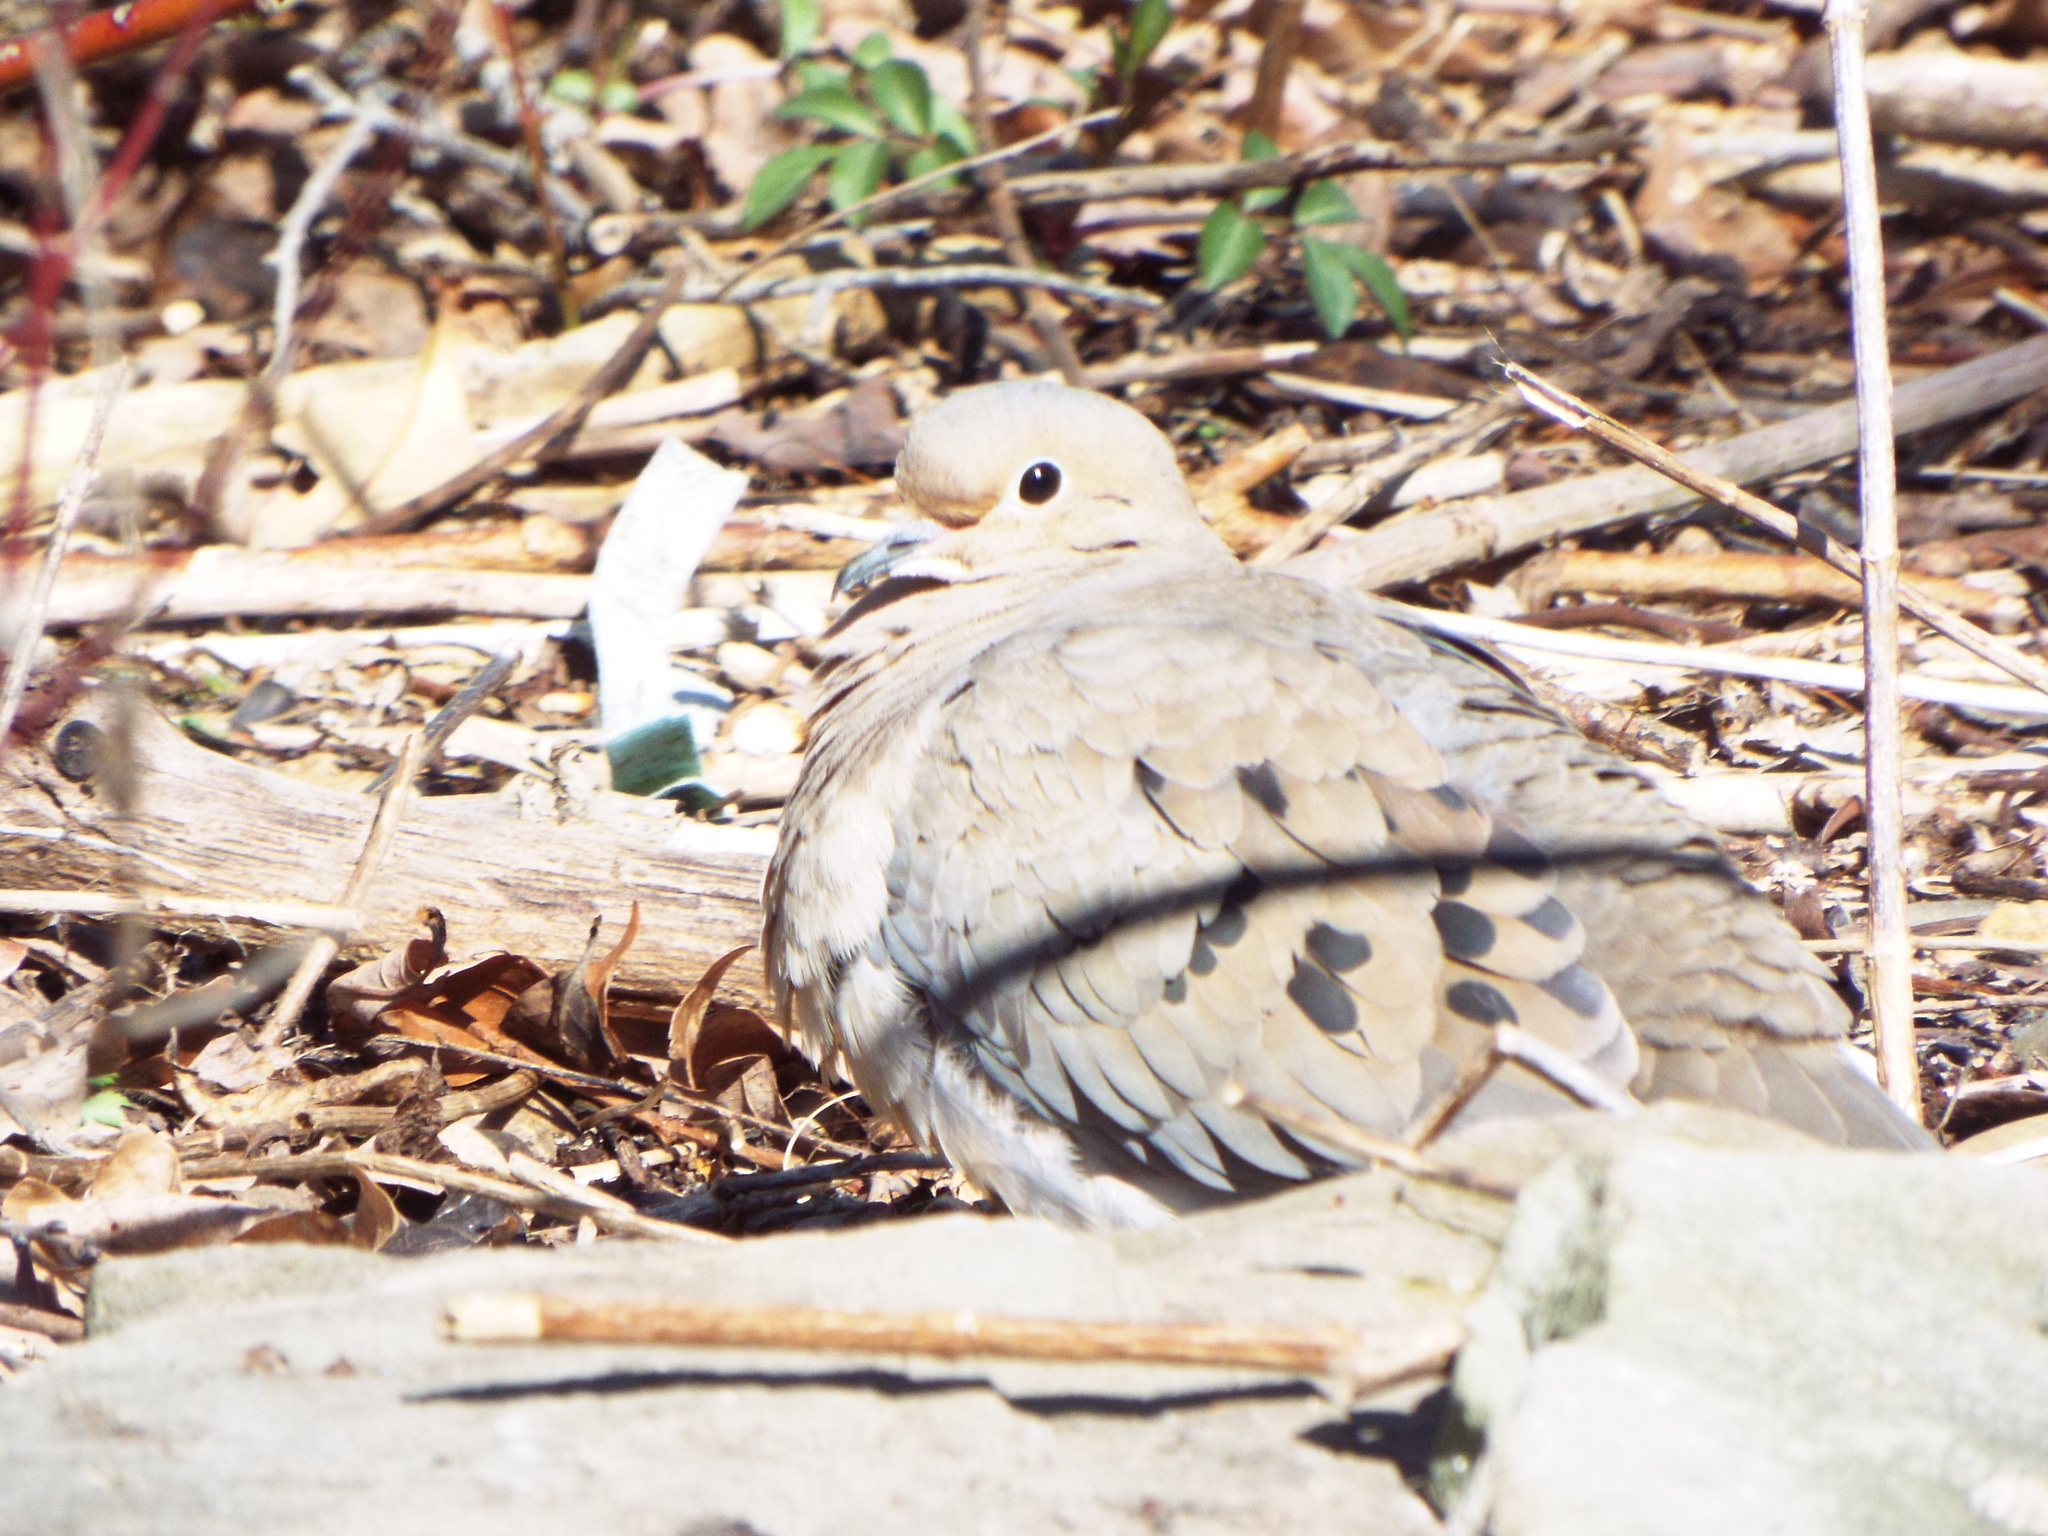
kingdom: Animalia
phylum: Chordata
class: Aves
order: Columbiformes
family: Columbidae
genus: Zenaida
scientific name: Zenaida macroura
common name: Mourning dove
